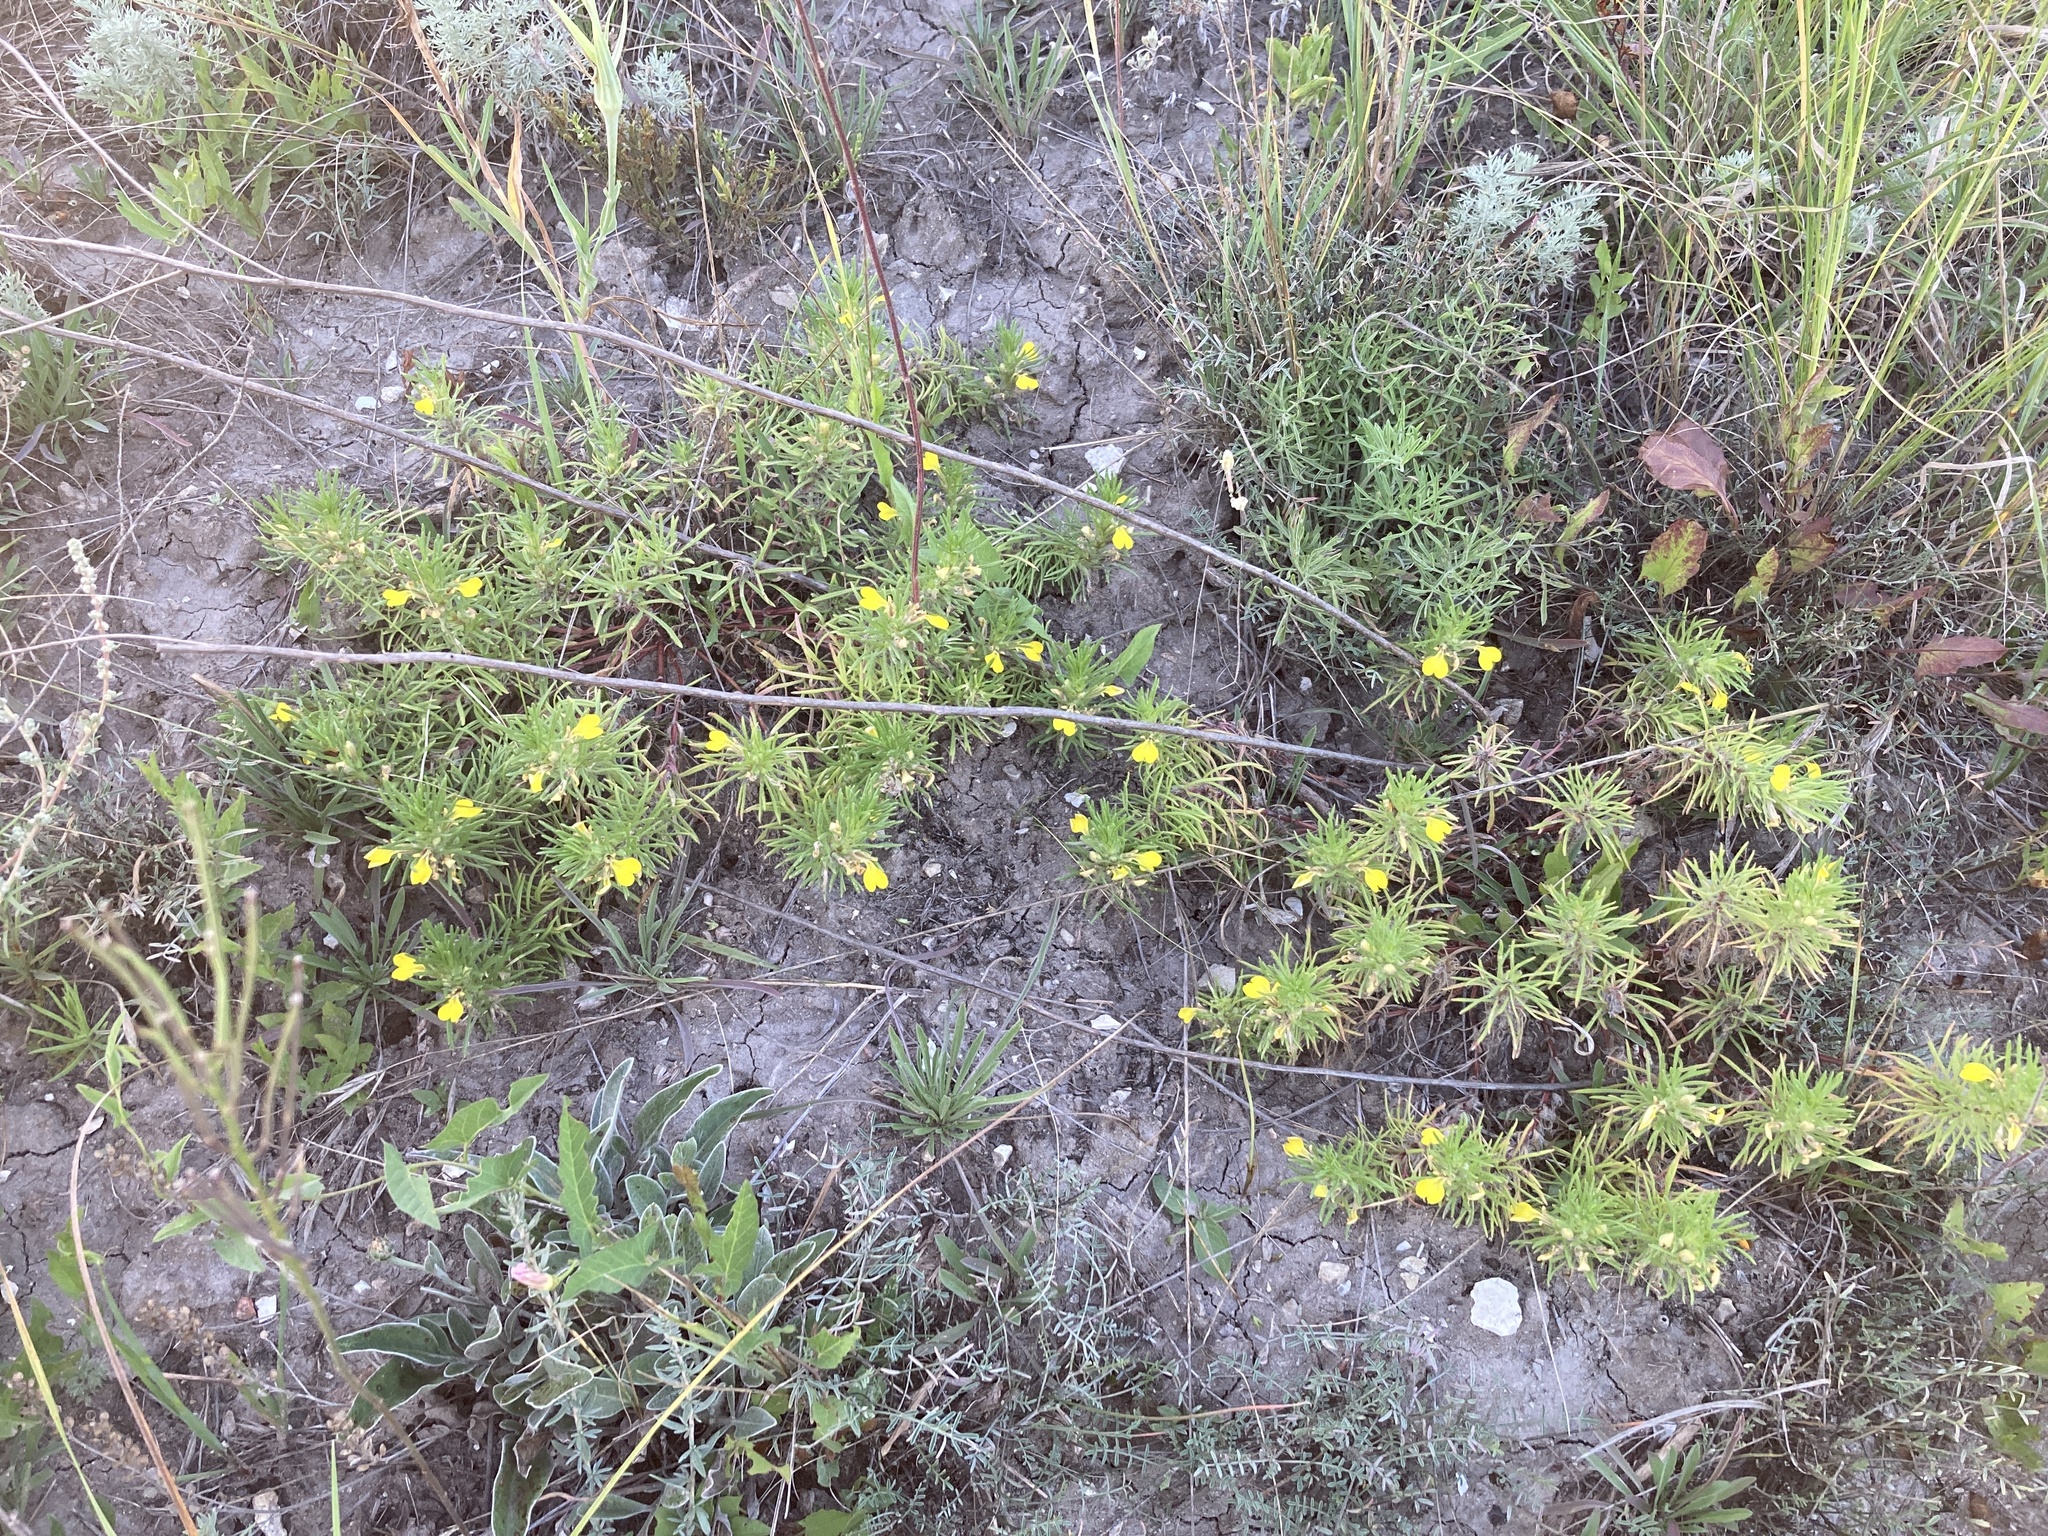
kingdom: Plantae
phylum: Tracheophyta
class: Magnoliopsida
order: Lamiales
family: Lamiaceae
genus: Ajuga
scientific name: Ajuga chamaepitys
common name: Ground-pine
